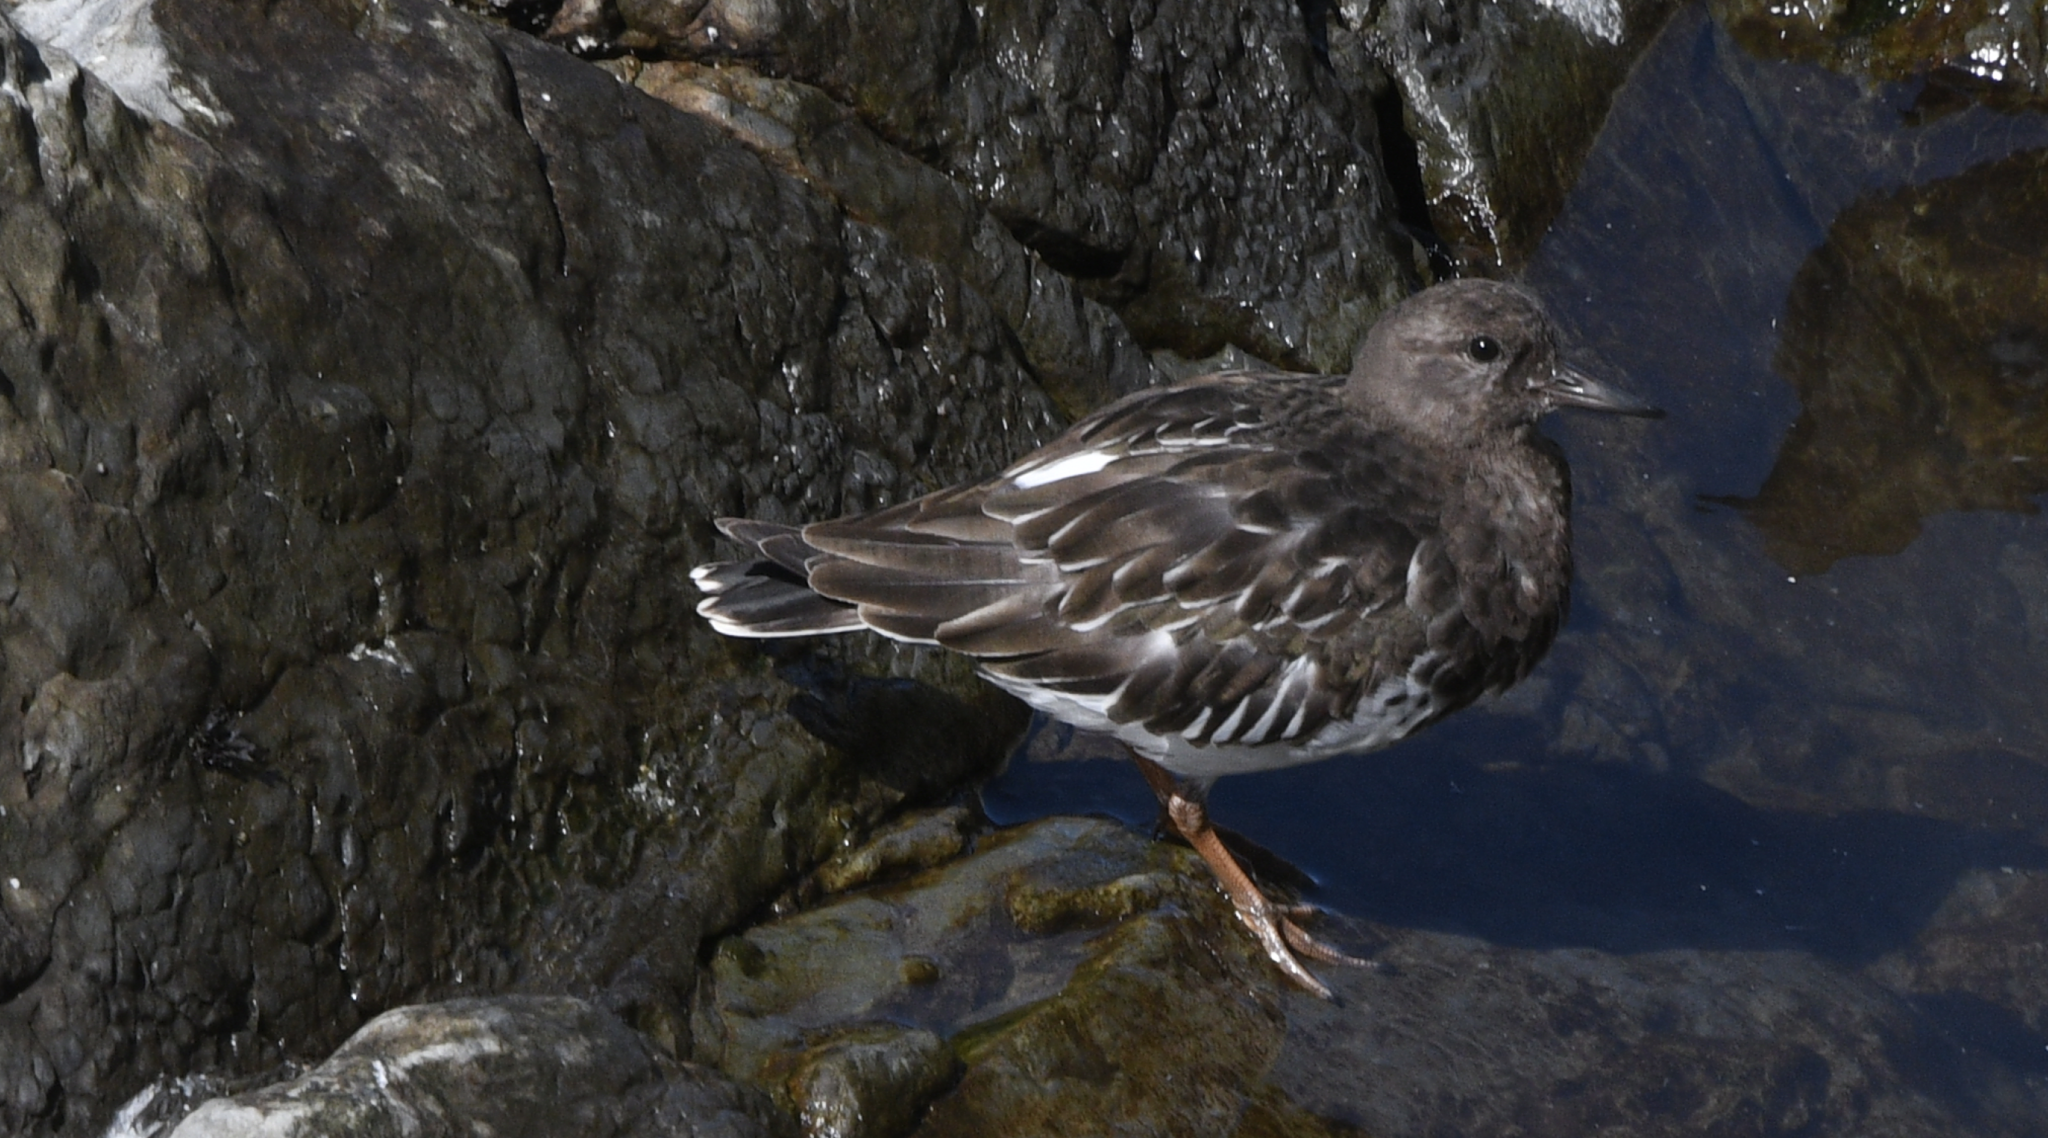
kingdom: Animalia
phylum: Chordata
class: Aves
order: Charadriiformes
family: Scolopacidae
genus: Arenaria
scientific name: Arenaria melanocephala
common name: Black turnstone
